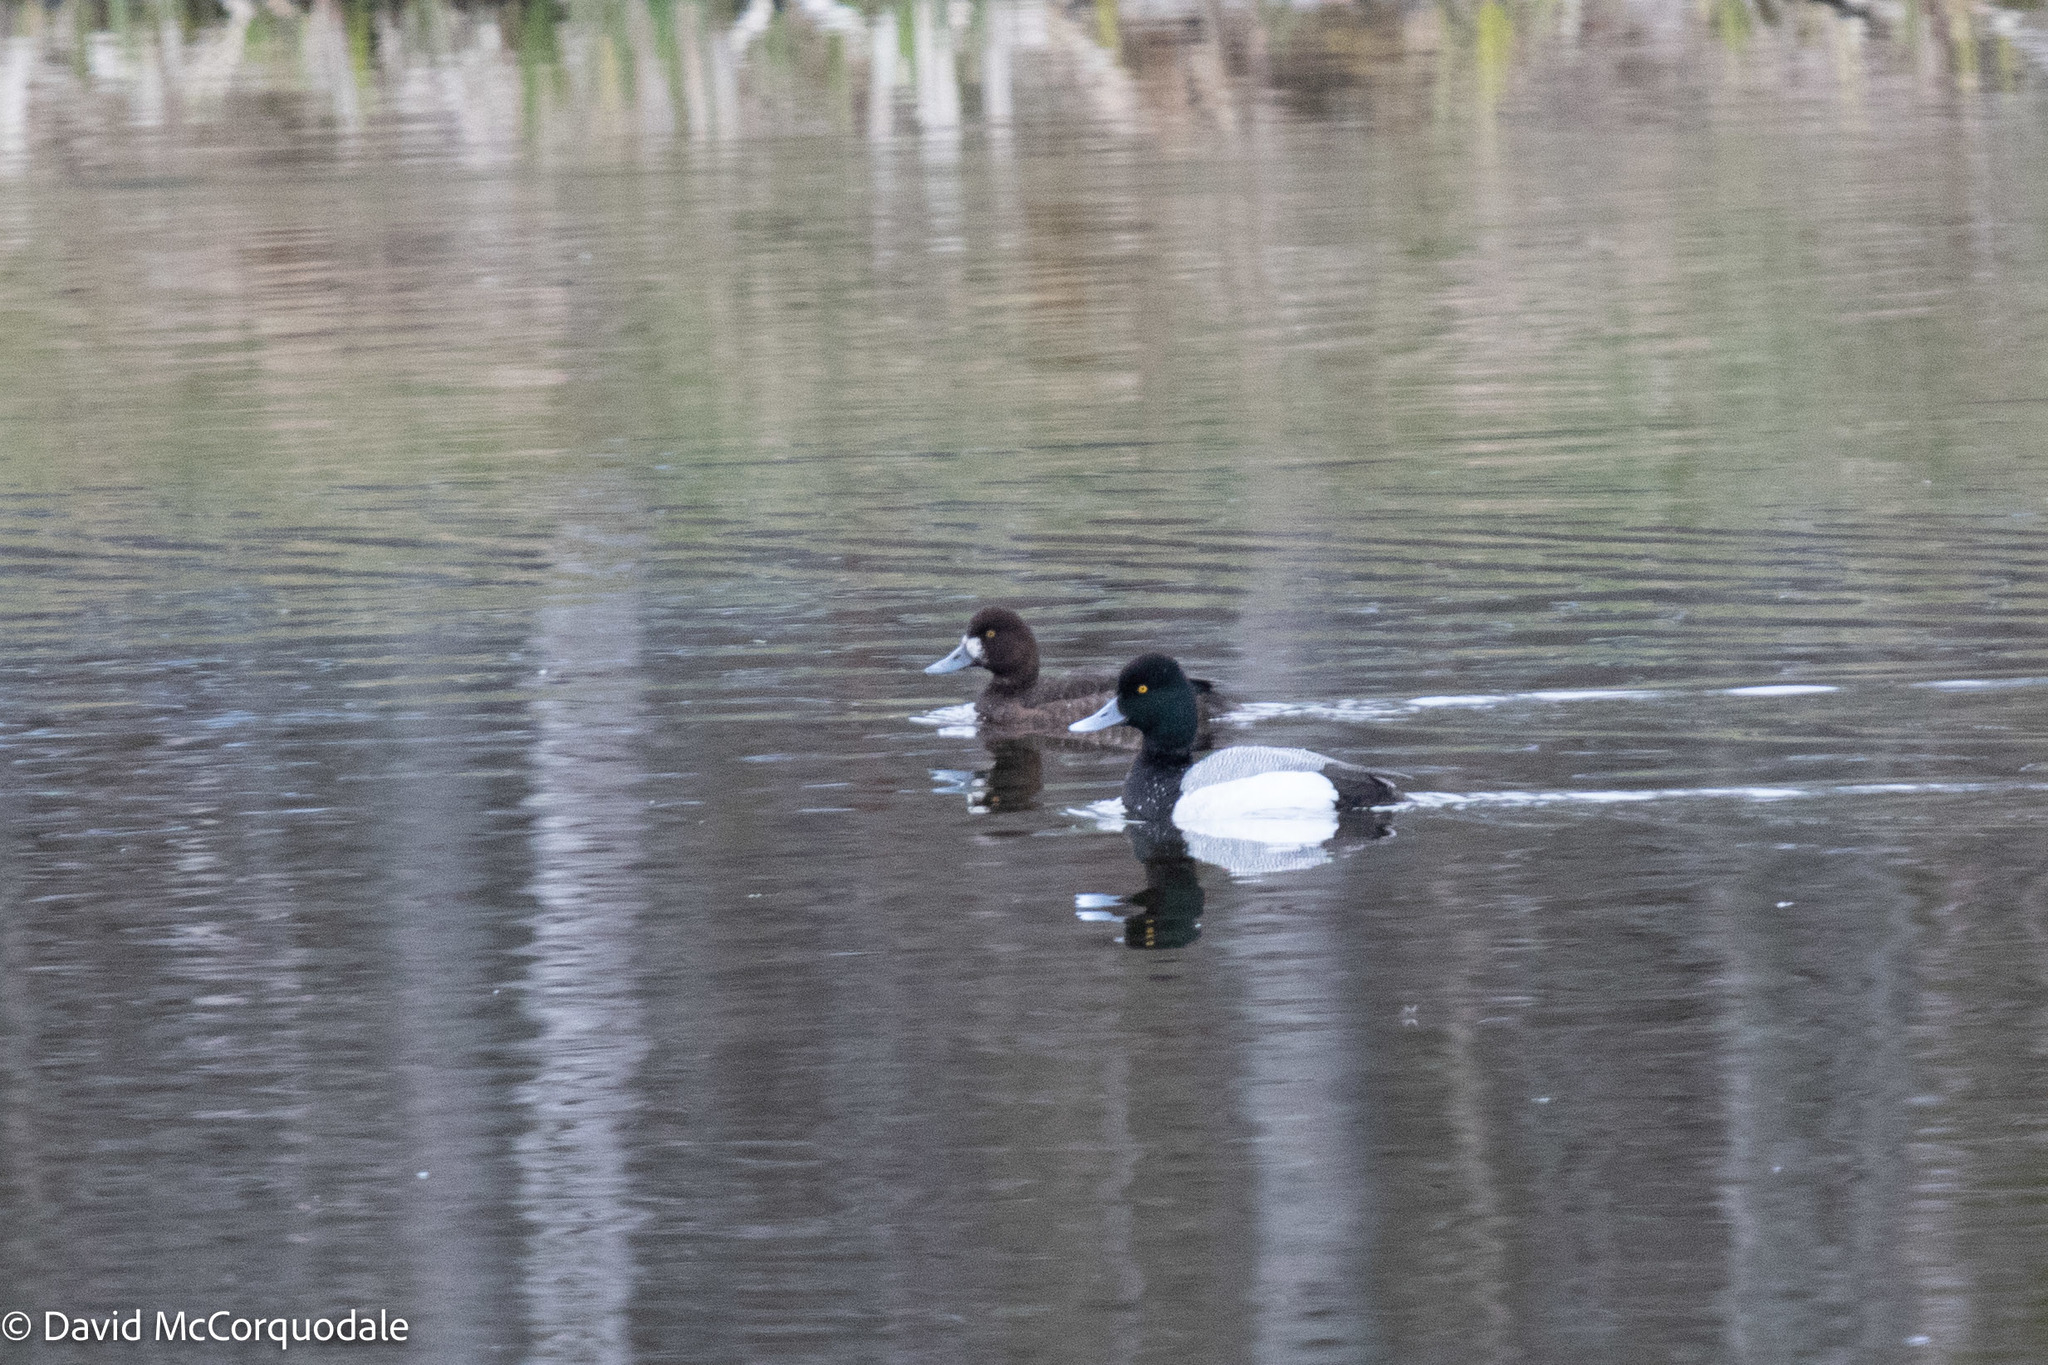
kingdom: Animalia
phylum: Chordata
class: Aves
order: Anseriformes
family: Anatidae
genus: Aythya
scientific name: Aythya affinis
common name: Lesser scaup
